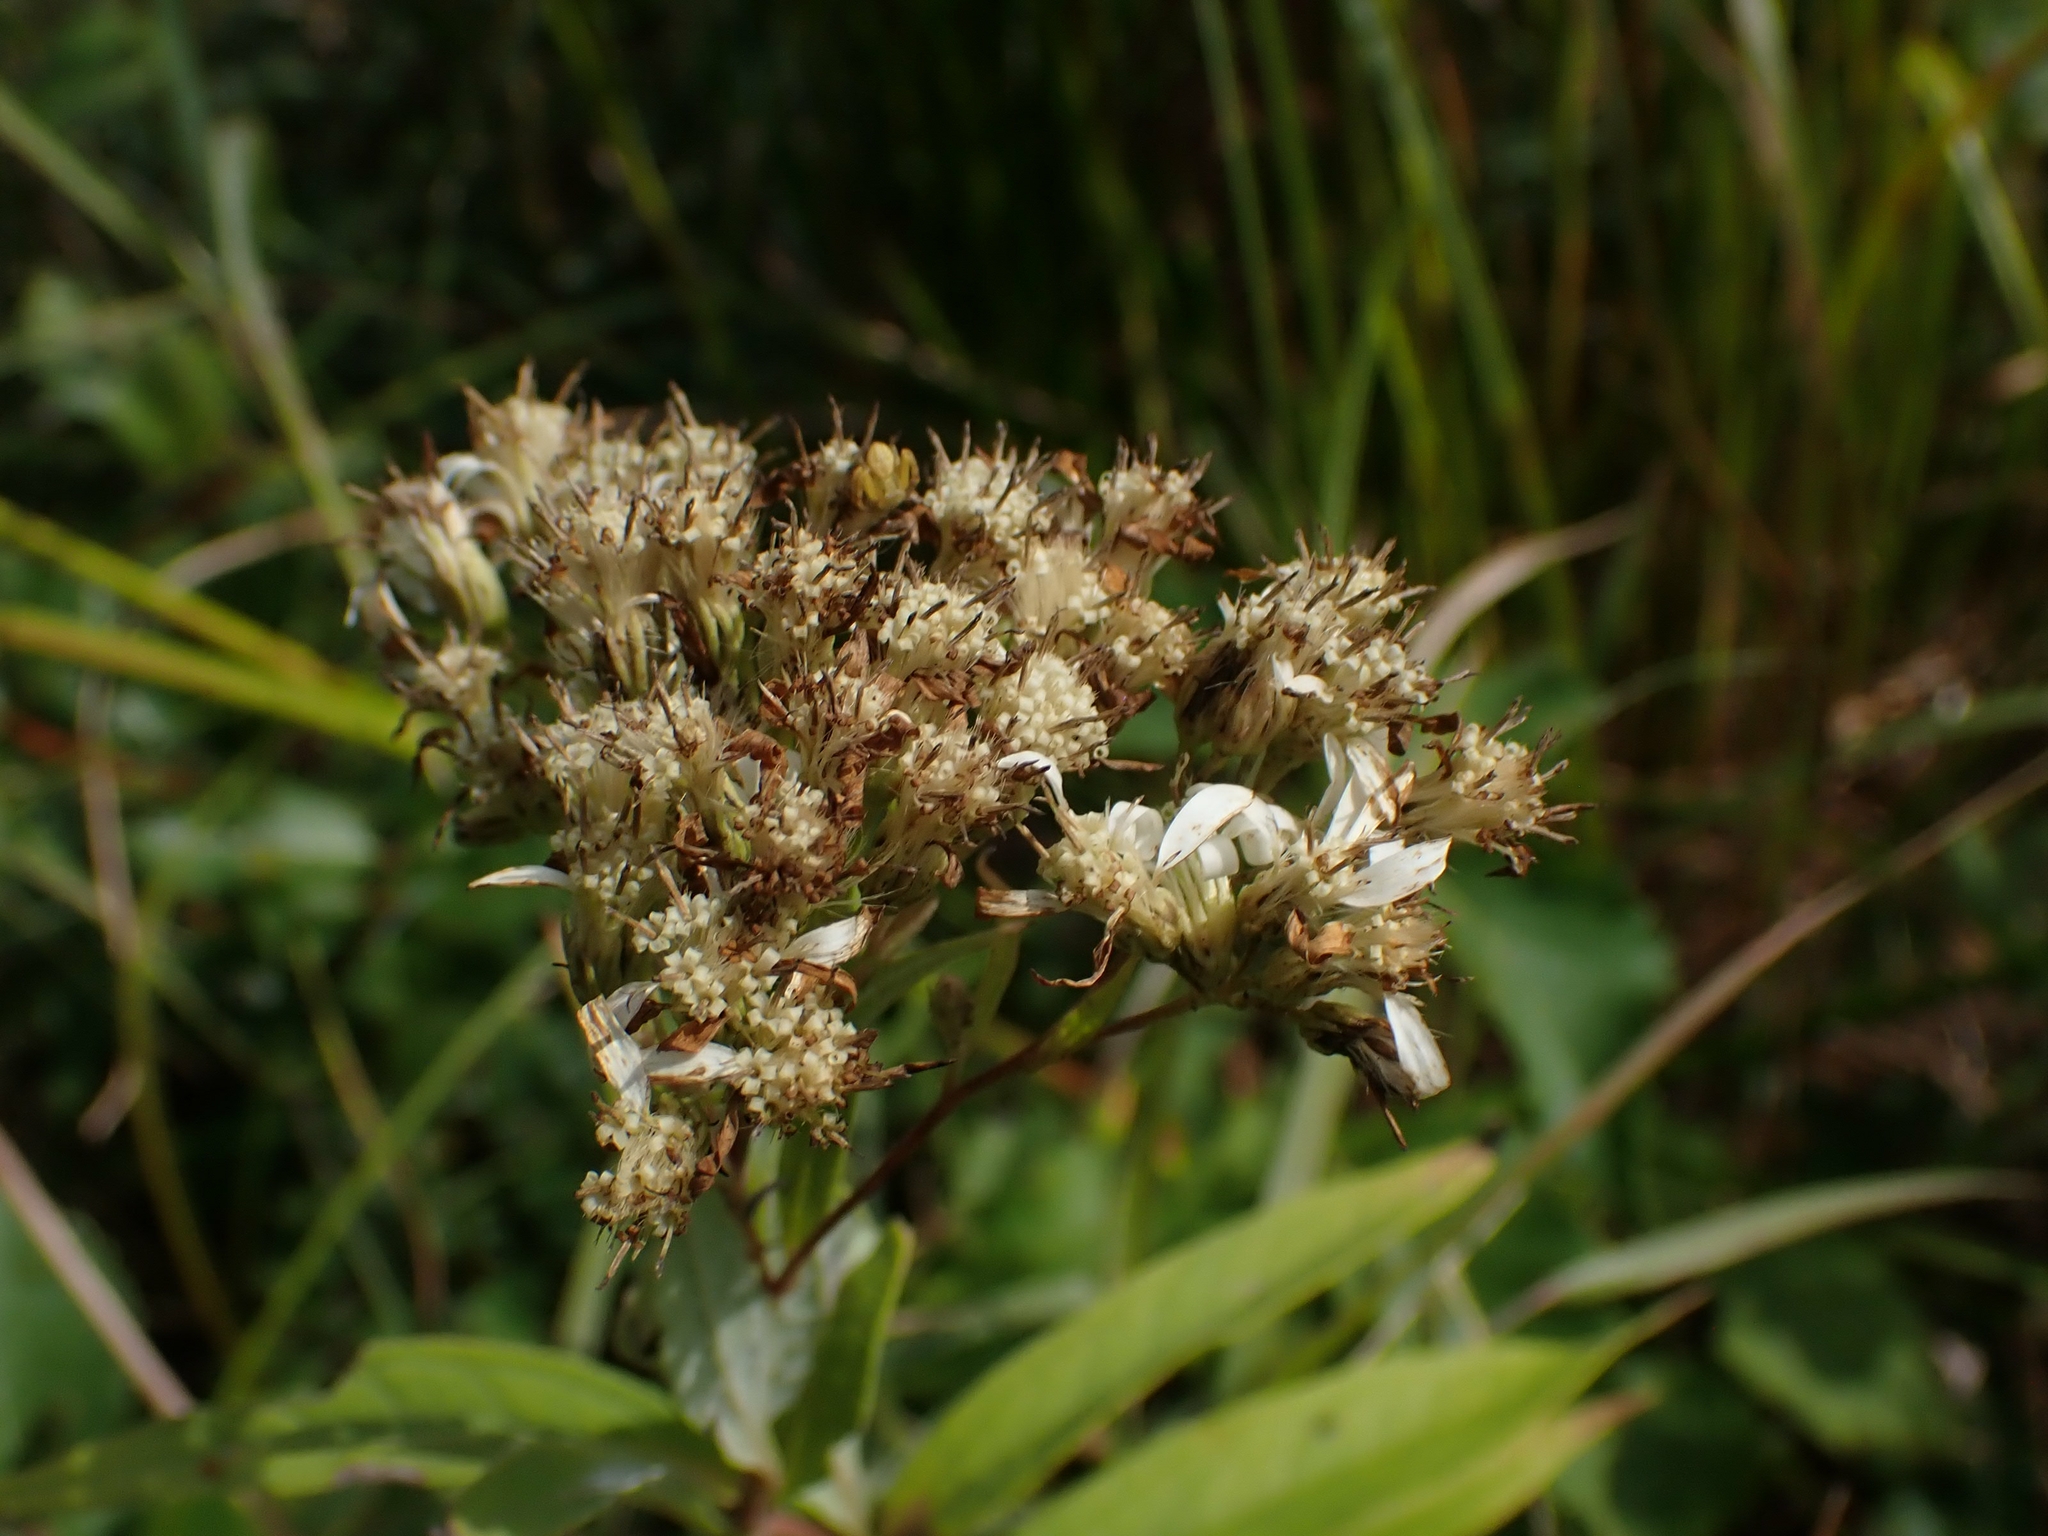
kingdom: Plantae
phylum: Tracheophyta
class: Magnoliopsida
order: Asterales
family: Asteraceae
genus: Doellingeria
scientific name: Doellingeria umbellata
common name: Flat-top white aster
